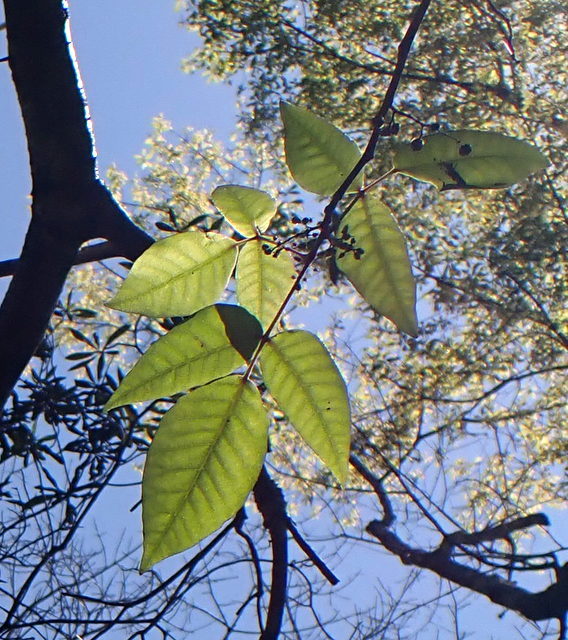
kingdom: Plantae
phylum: Tracheophyta
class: Magnoliopsida
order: Sapindales
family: Anacardiaceae
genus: Toxicodendron
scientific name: Toxicodendron radicans
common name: Poison ivy
